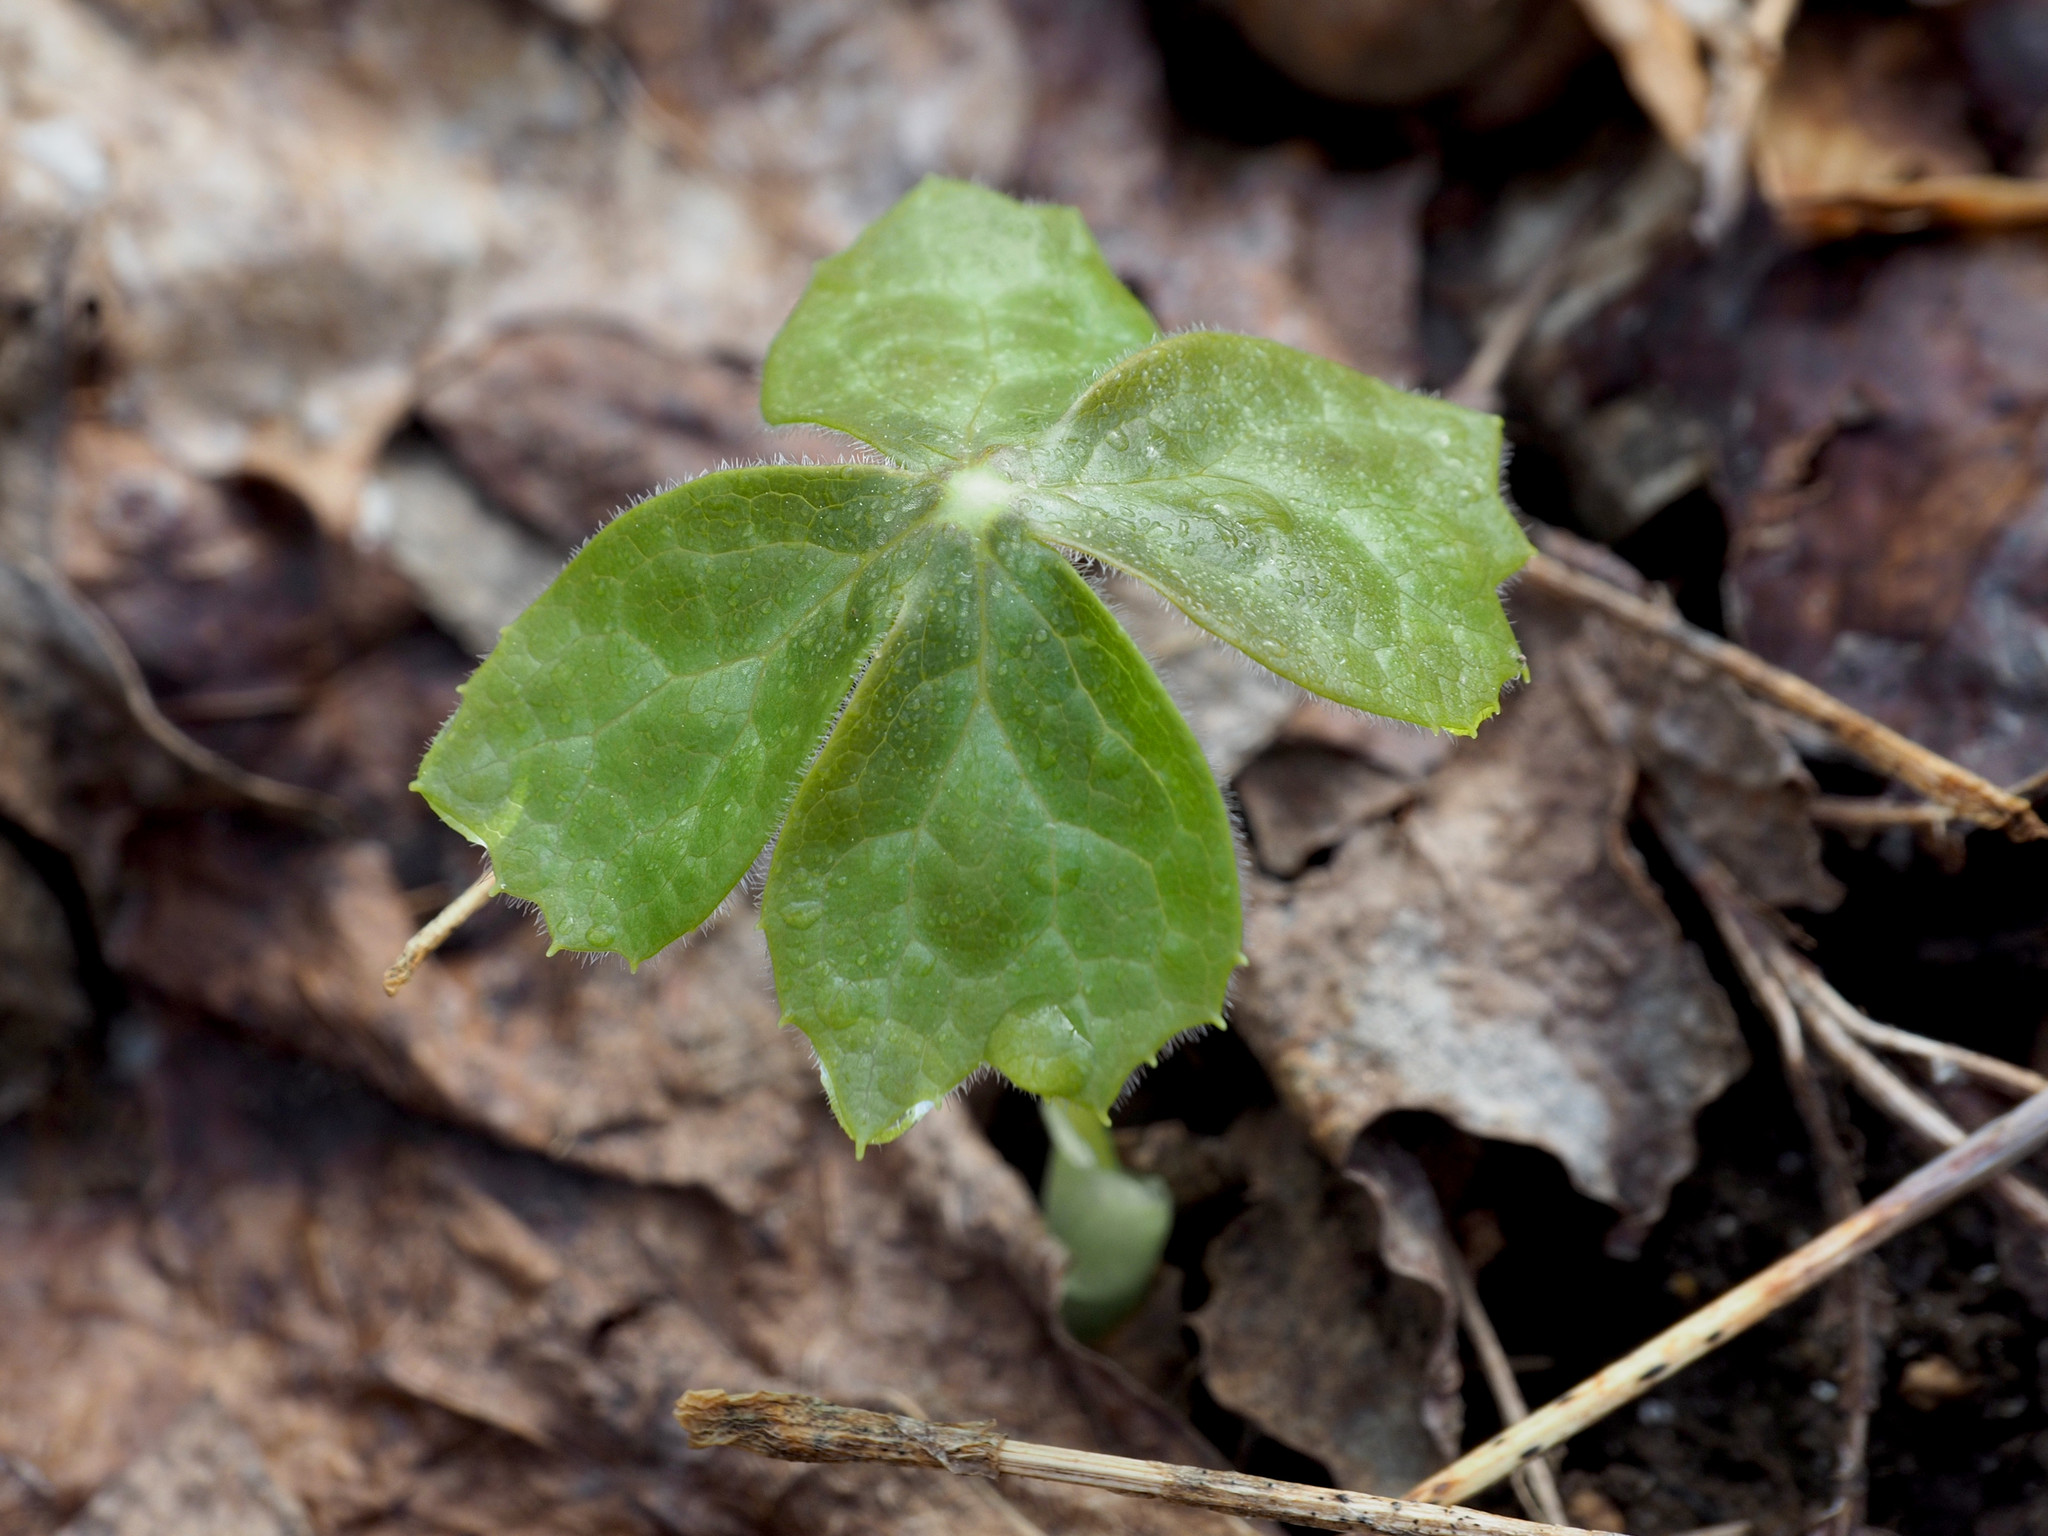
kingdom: Plantae
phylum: Tracheophyta
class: Magnoliopsida
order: Ranunculales
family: Berberidaceae
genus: Podophyllum
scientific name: Podophyllum peltatum
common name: Wild mandrake
